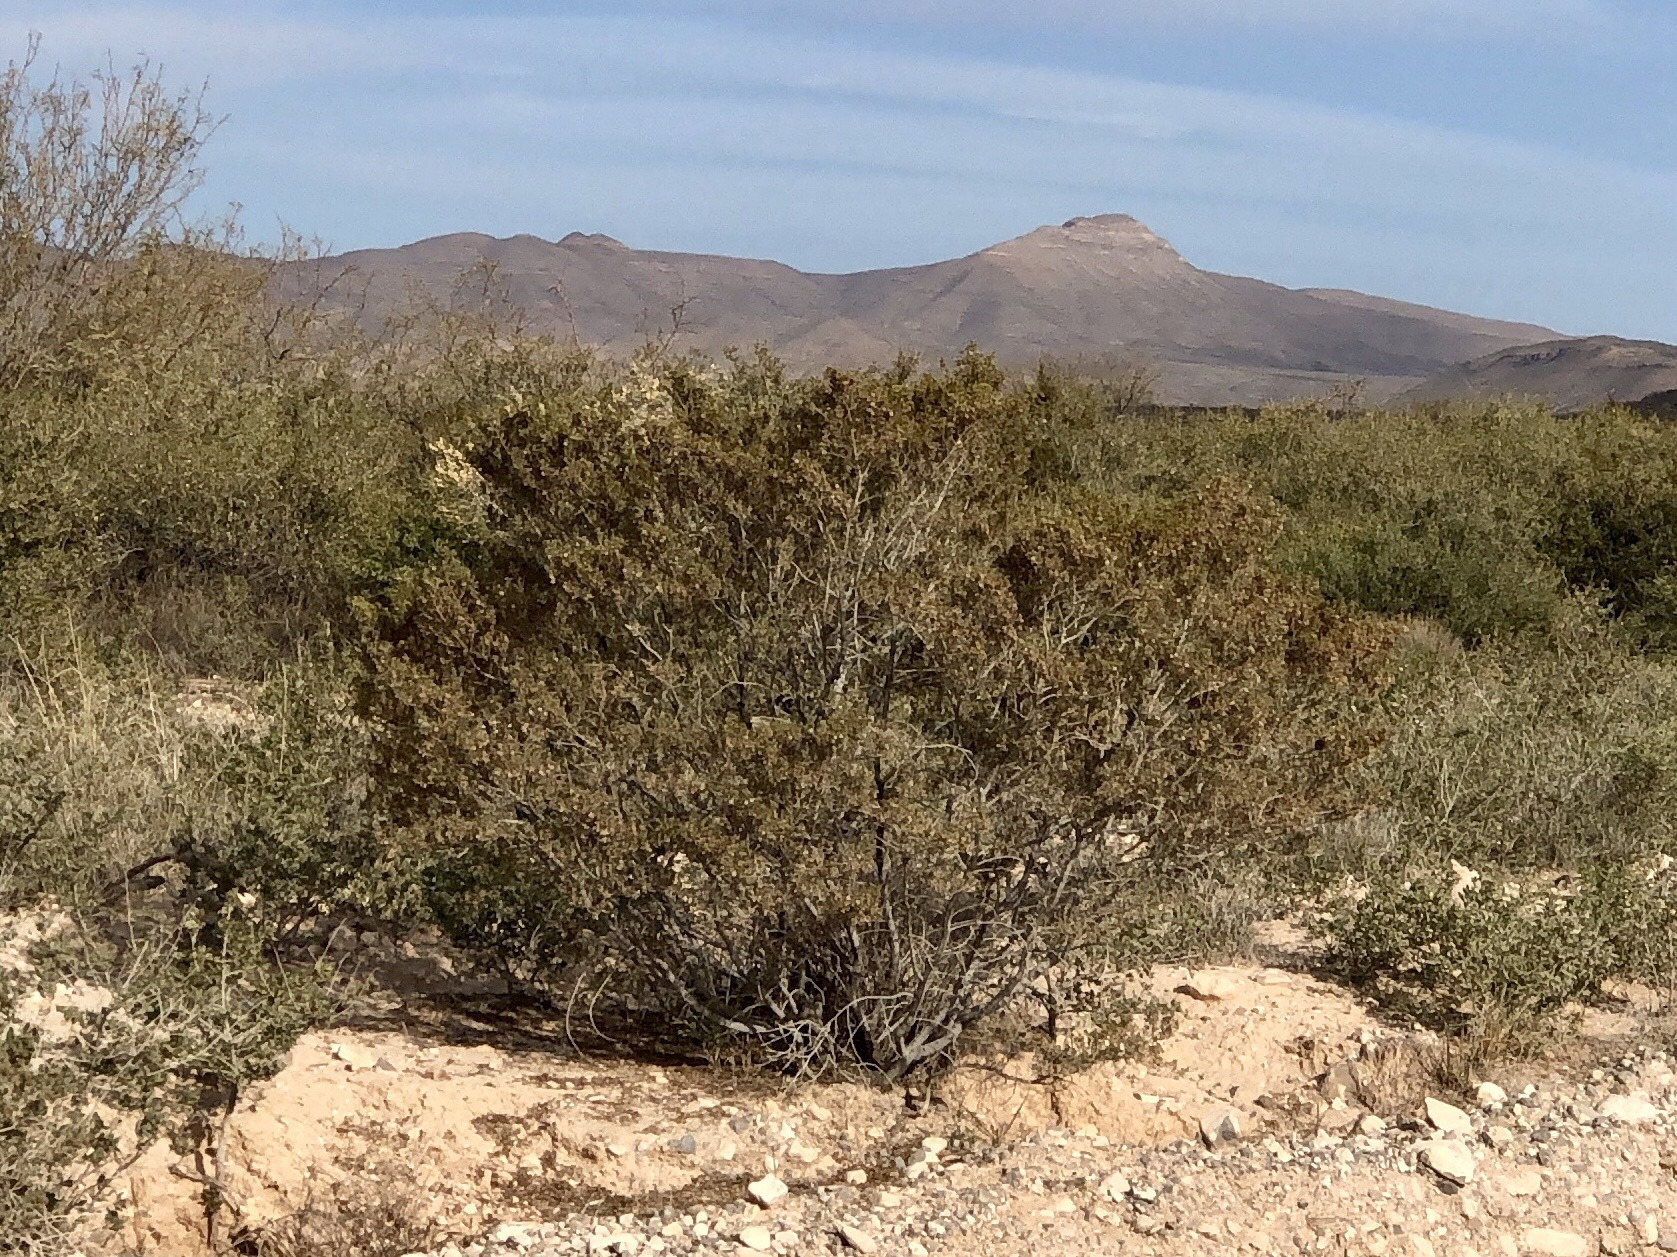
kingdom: Plantae
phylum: Tracheophyta
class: Magnoliopsida
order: Zygophyllales
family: Zygophyllaceae
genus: Larrea
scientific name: Larrea tridentata
